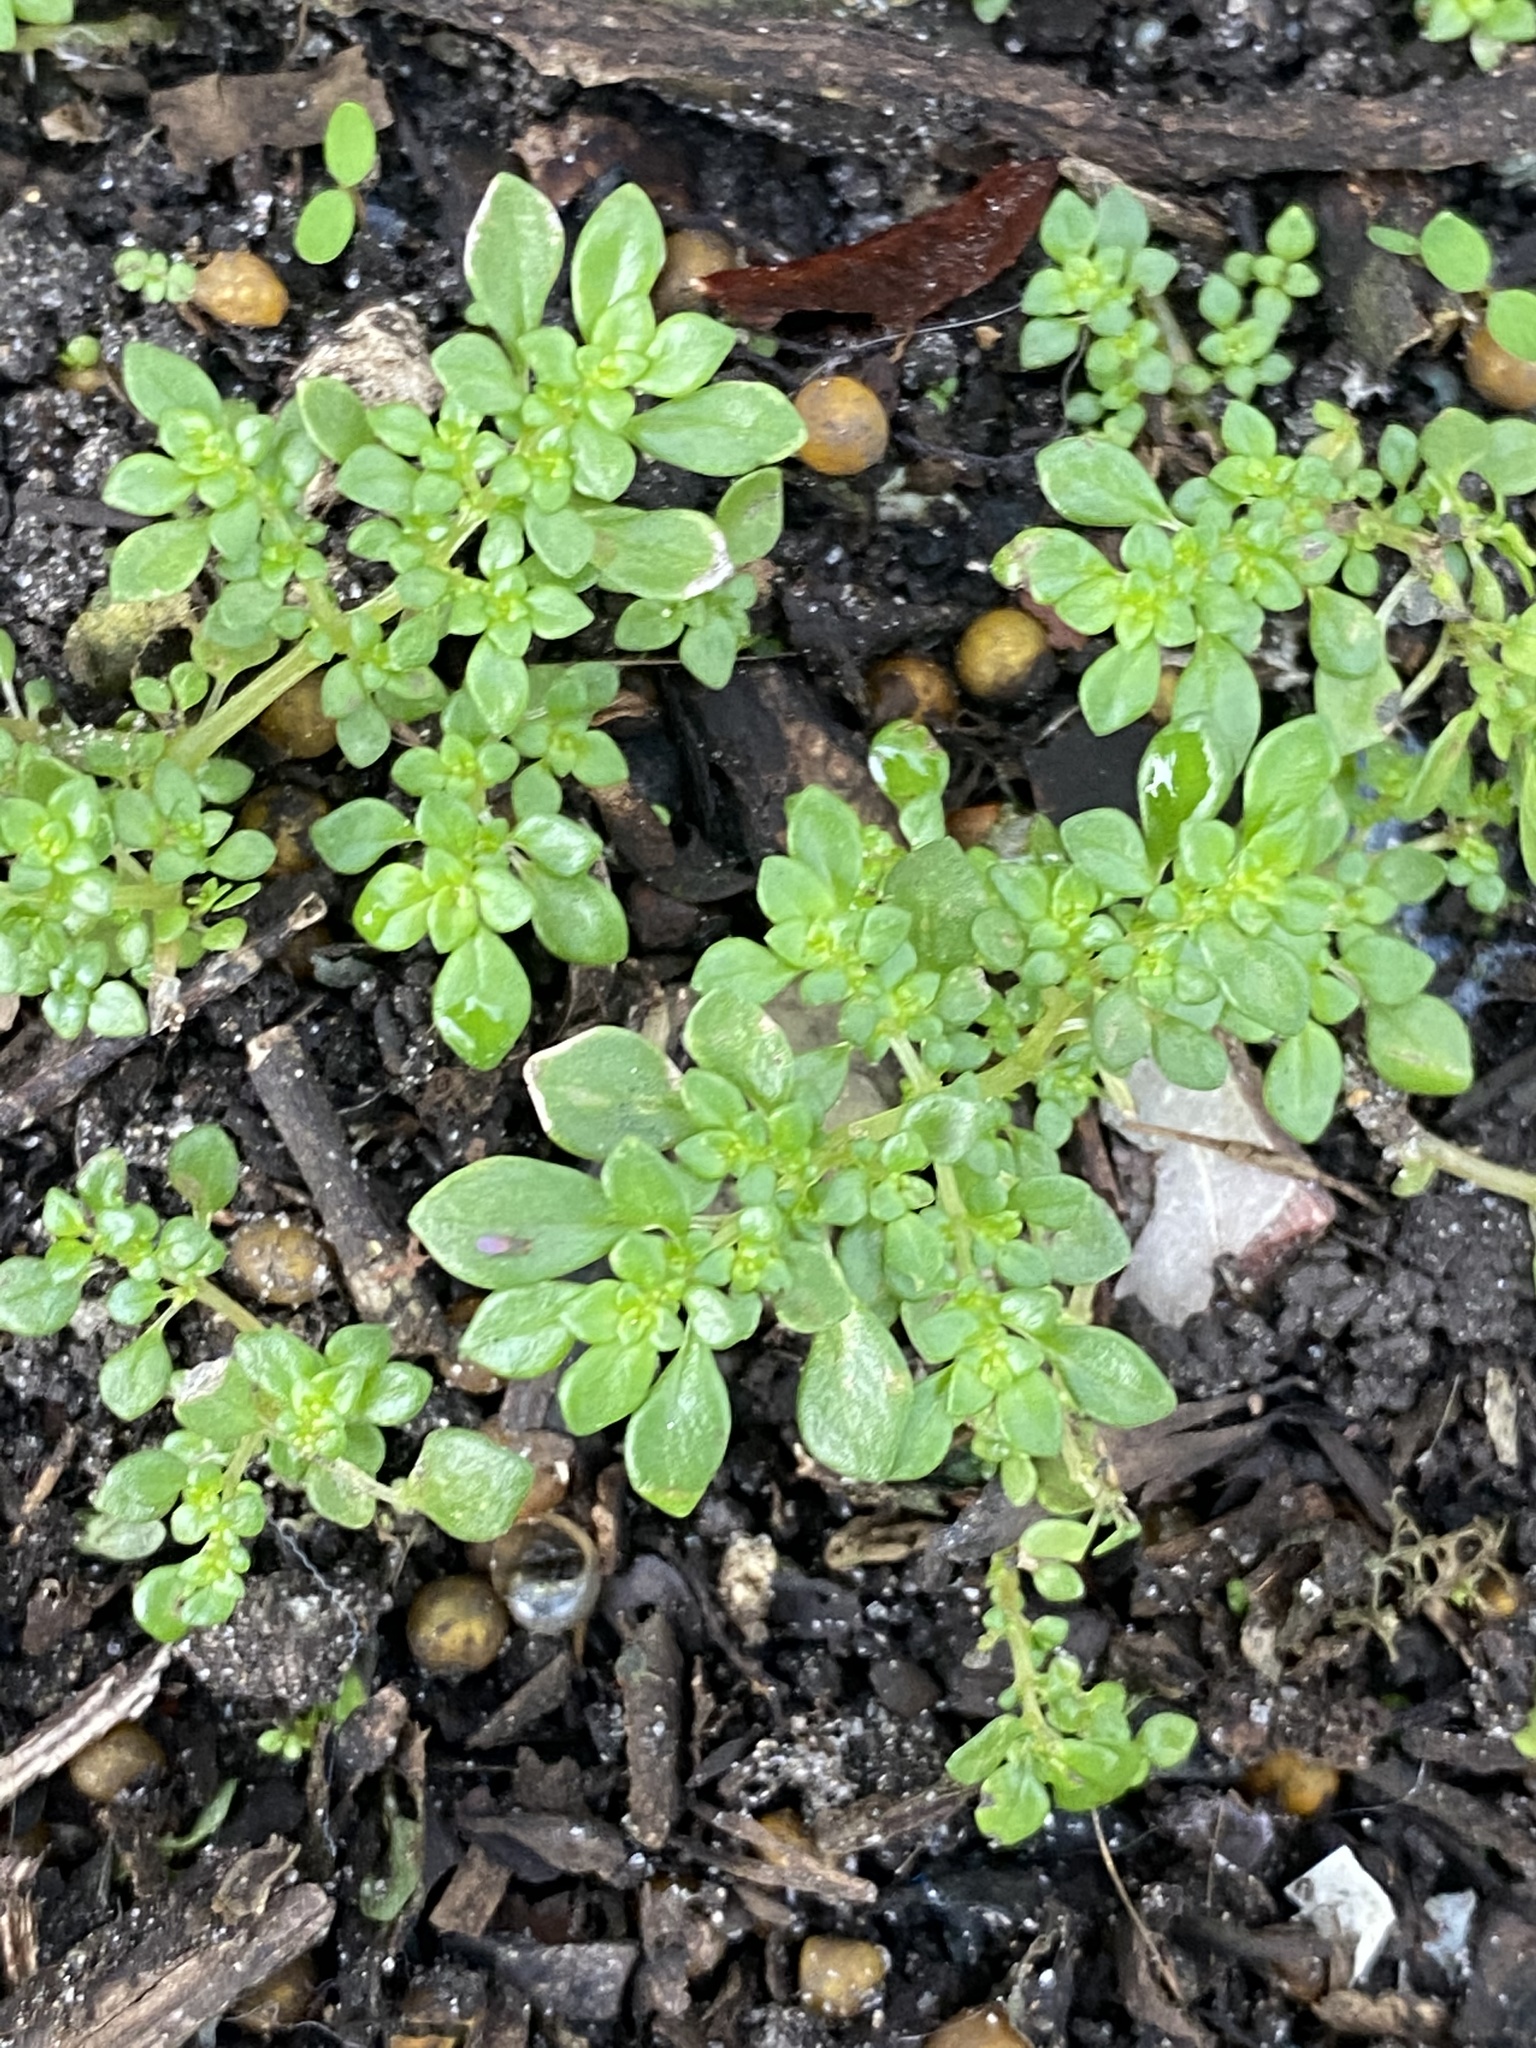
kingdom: Plantae
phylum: Tracheophyta
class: Magnoliopsida
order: Rosales
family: Urticaceae
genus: Pilea
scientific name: Pilea microphylla
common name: Artillery-plant
